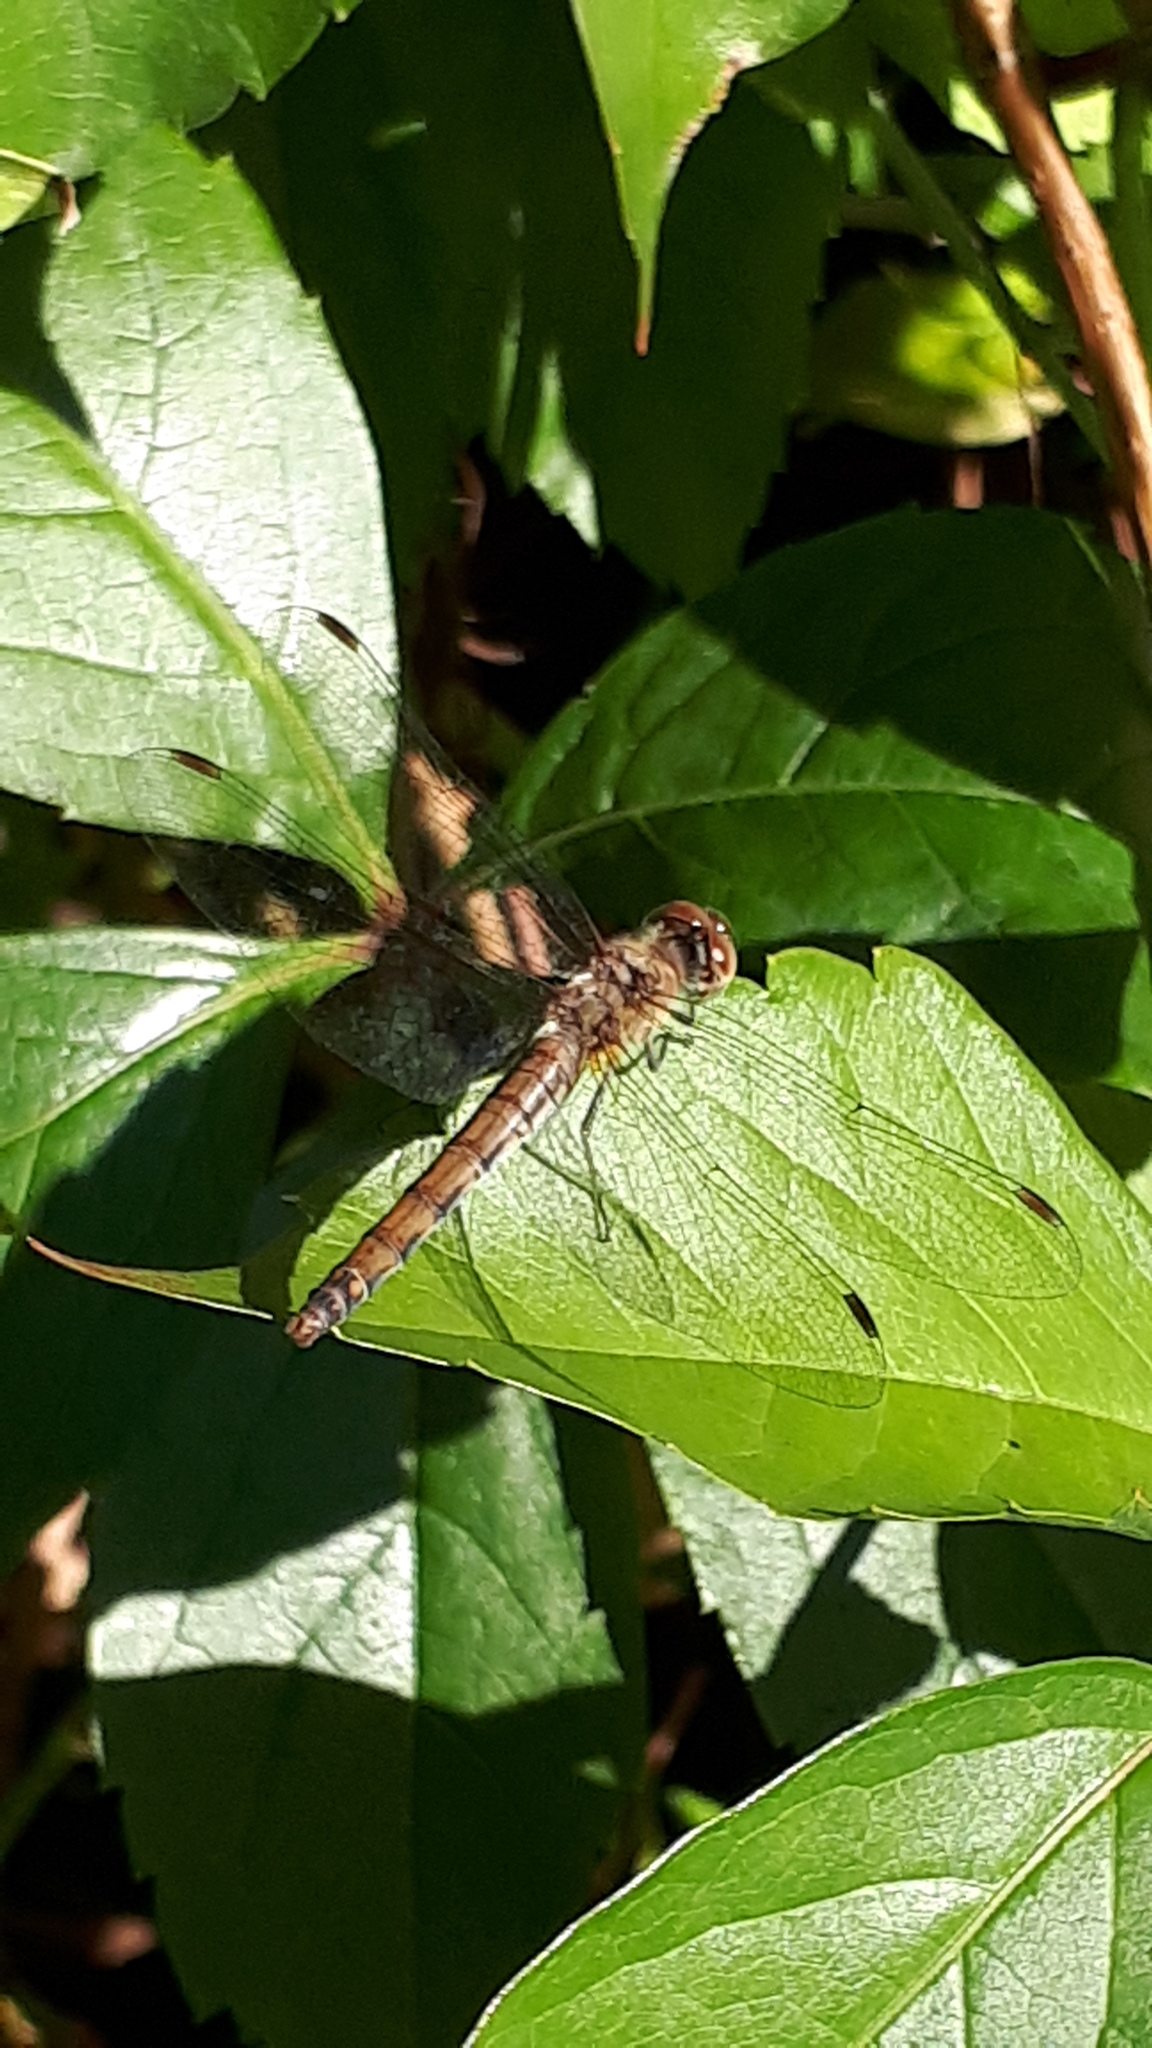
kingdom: Animalia
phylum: Arthropoda
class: Insecta
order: Odonata
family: Libellulidae
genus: Sympetrum
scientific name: Sympetrum striolatum
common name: Common darter
